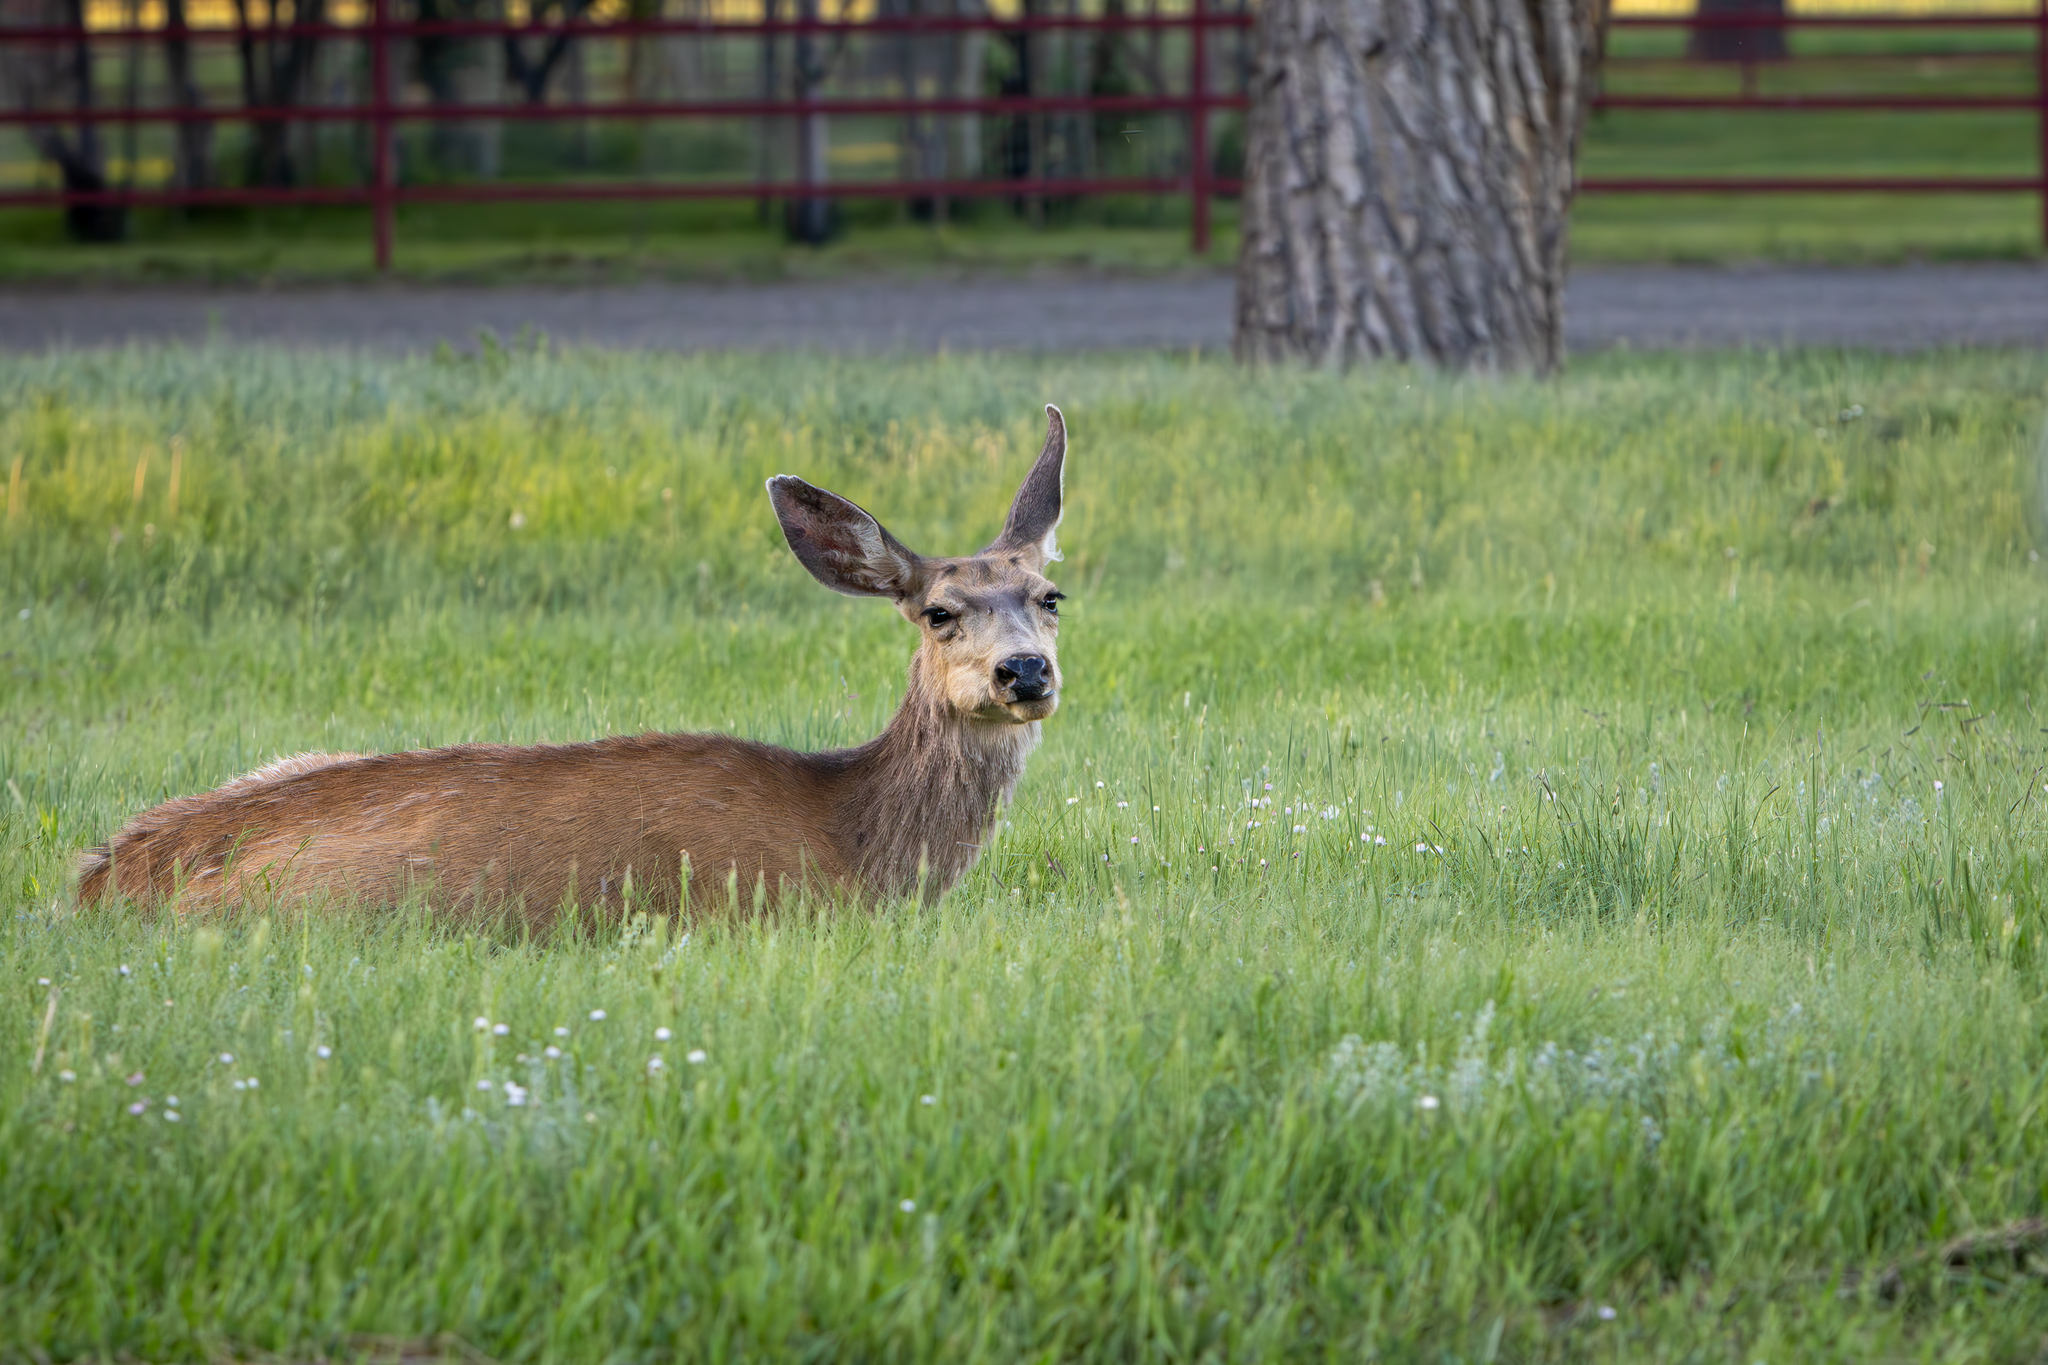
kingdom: Animalia
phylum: Chordata
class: Mammalia
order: Artiodactyla
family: Cervidae
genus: Odocoileus
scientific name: Odocoileus hemionus
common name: Mule deer
